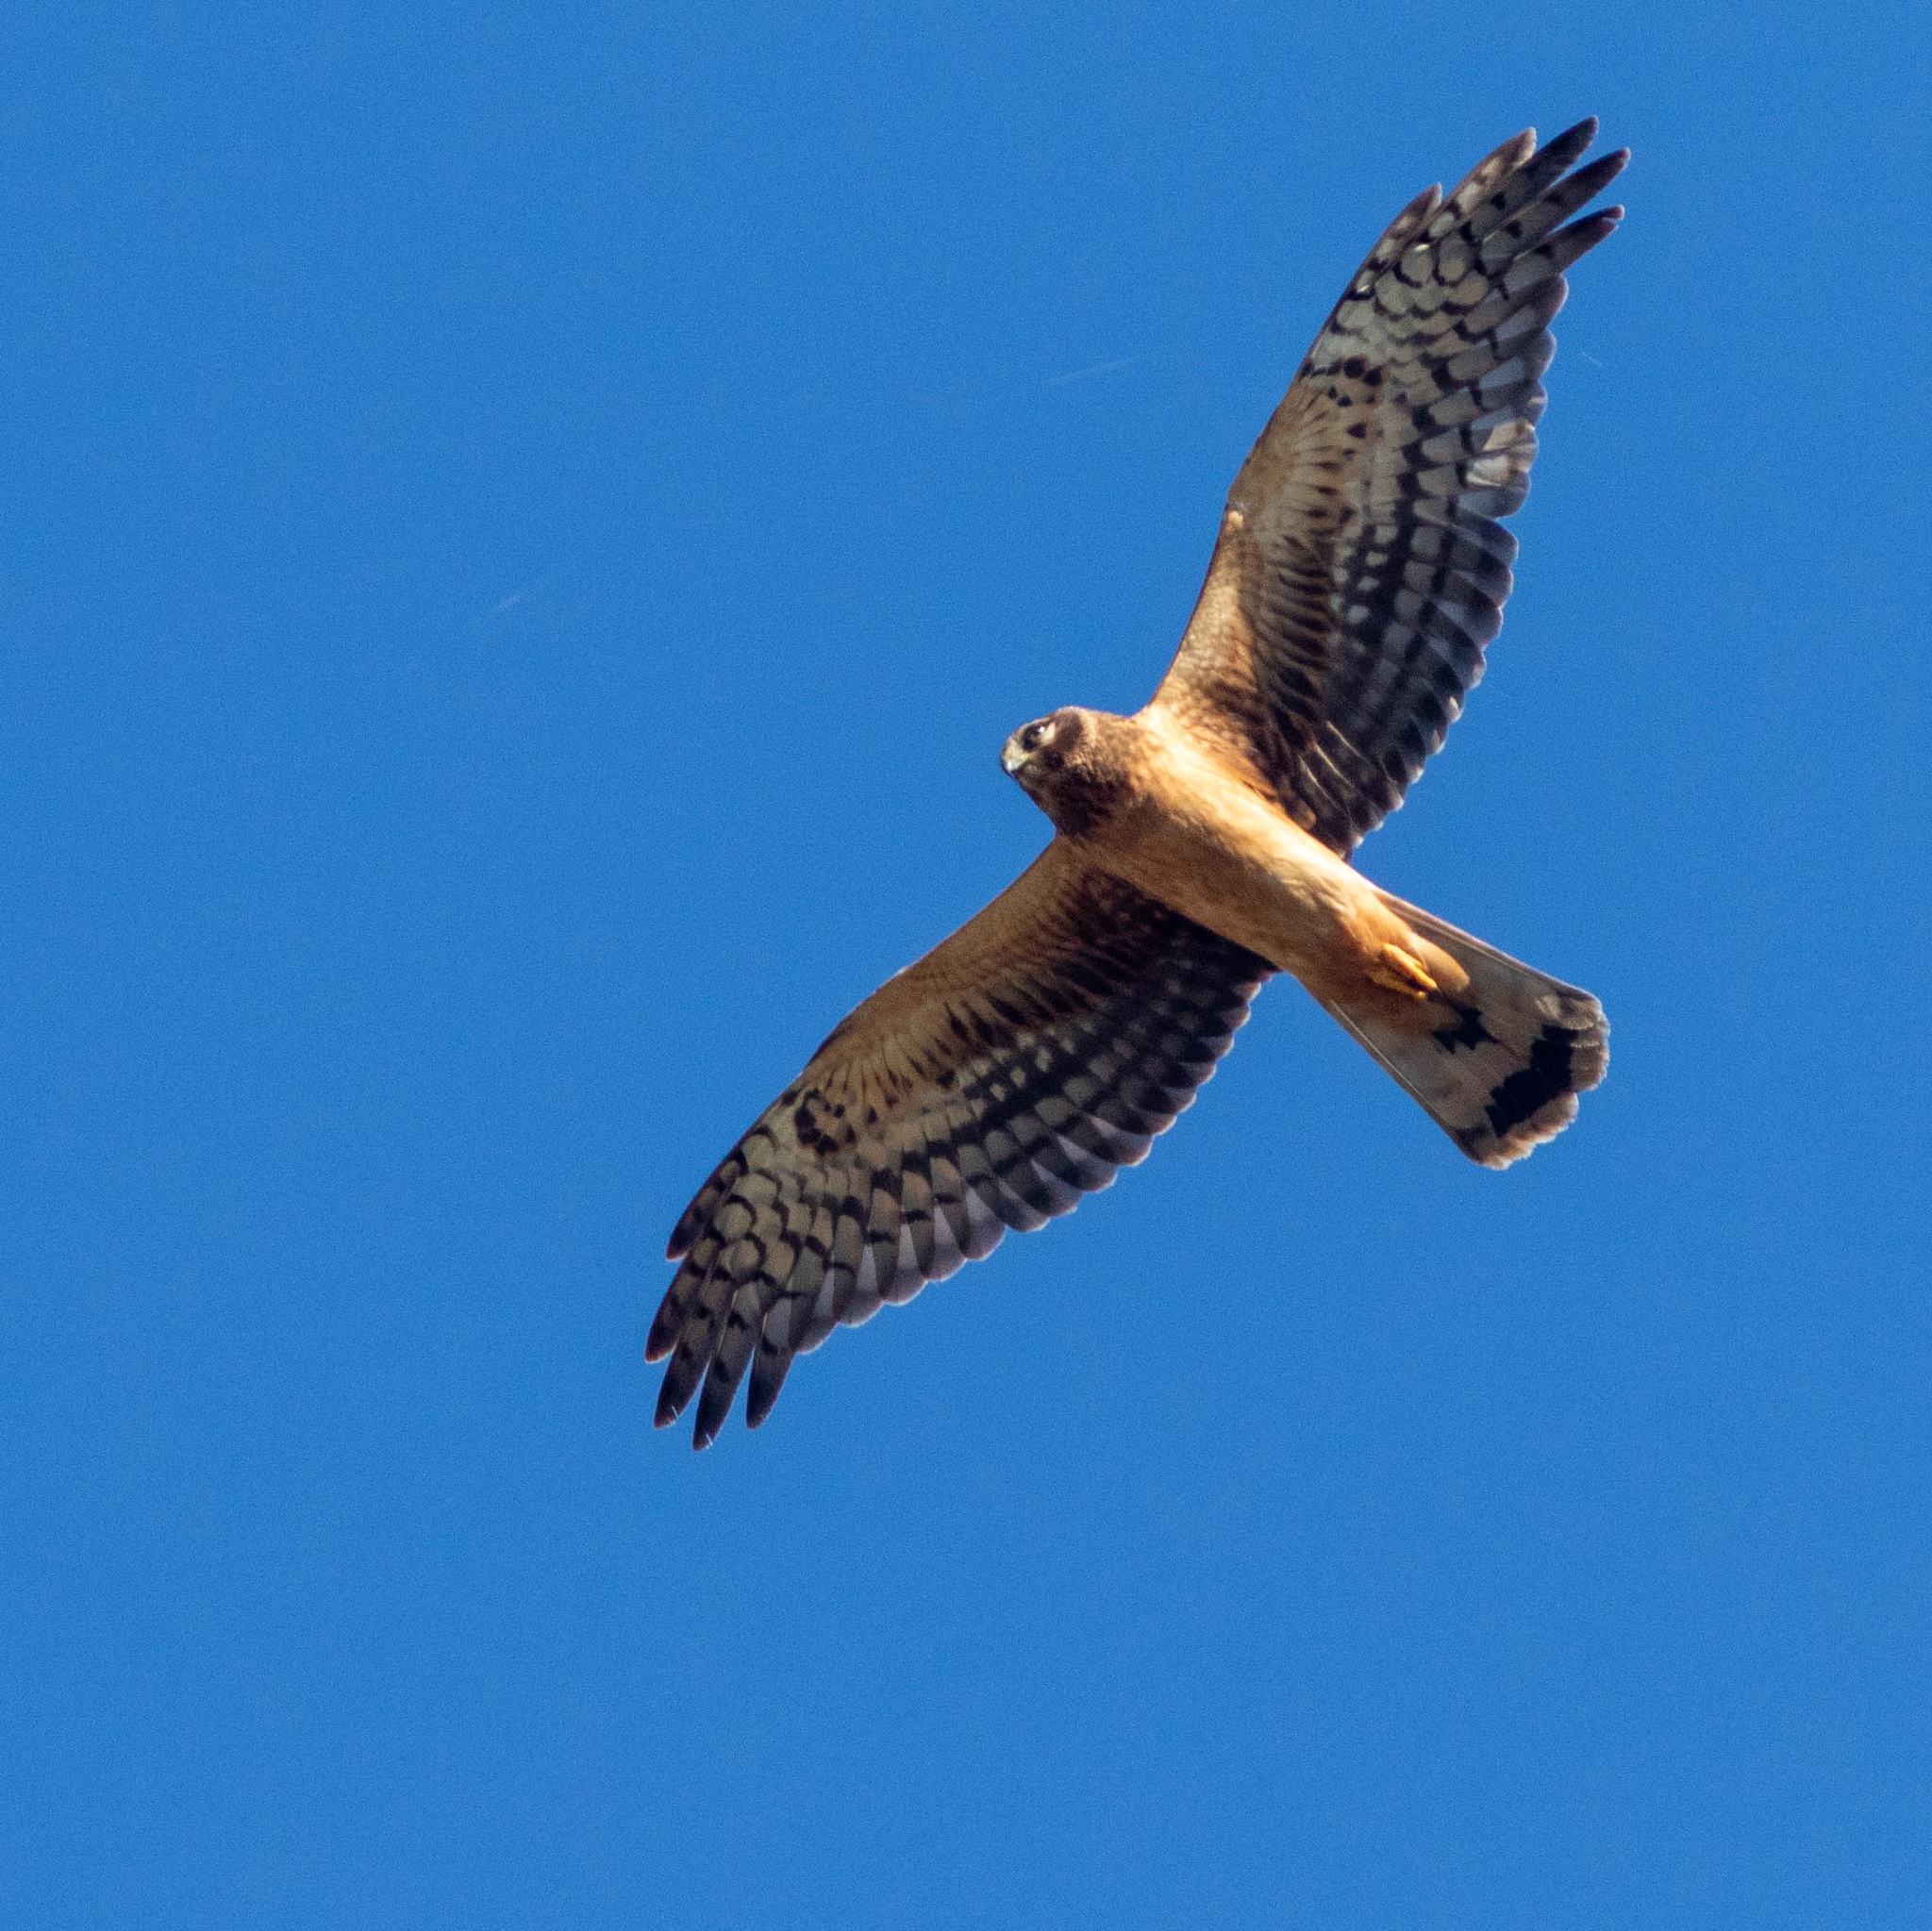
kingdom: Animalia
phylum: Chordata
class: Aves
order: Accipitriformes
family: Accipitridae
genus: Circus
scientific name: Circus cyaneus
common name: Hen harrier
